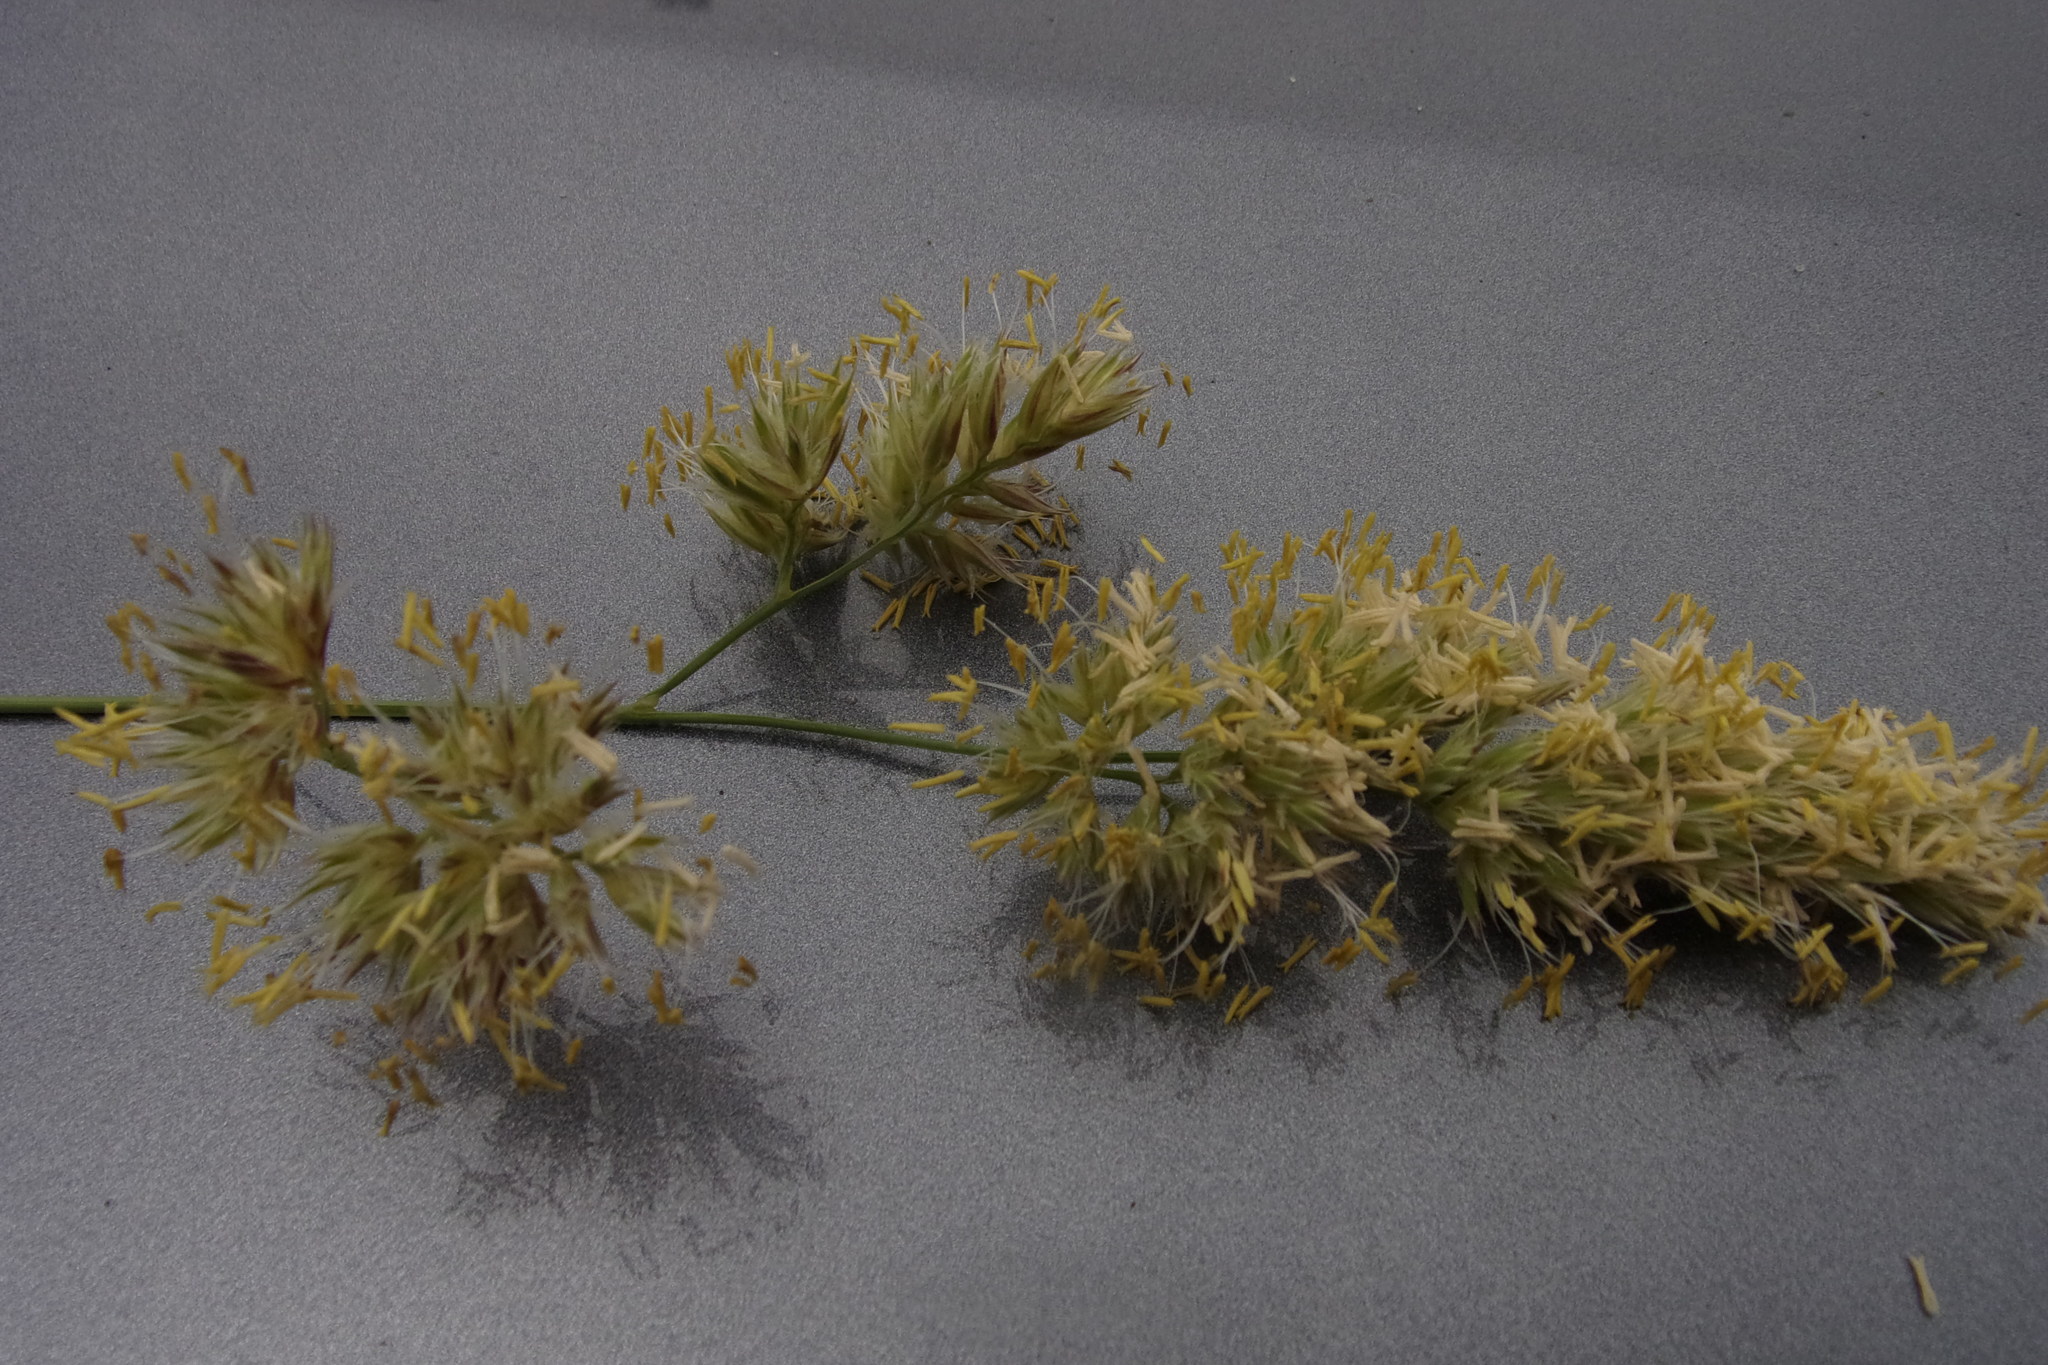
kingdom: Plantae
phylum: Tracheophyta
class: Liliopsida
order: Poales
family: Poaceae
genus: Dactylis
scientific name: Dactylis glomerata
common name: Orchardgrass
